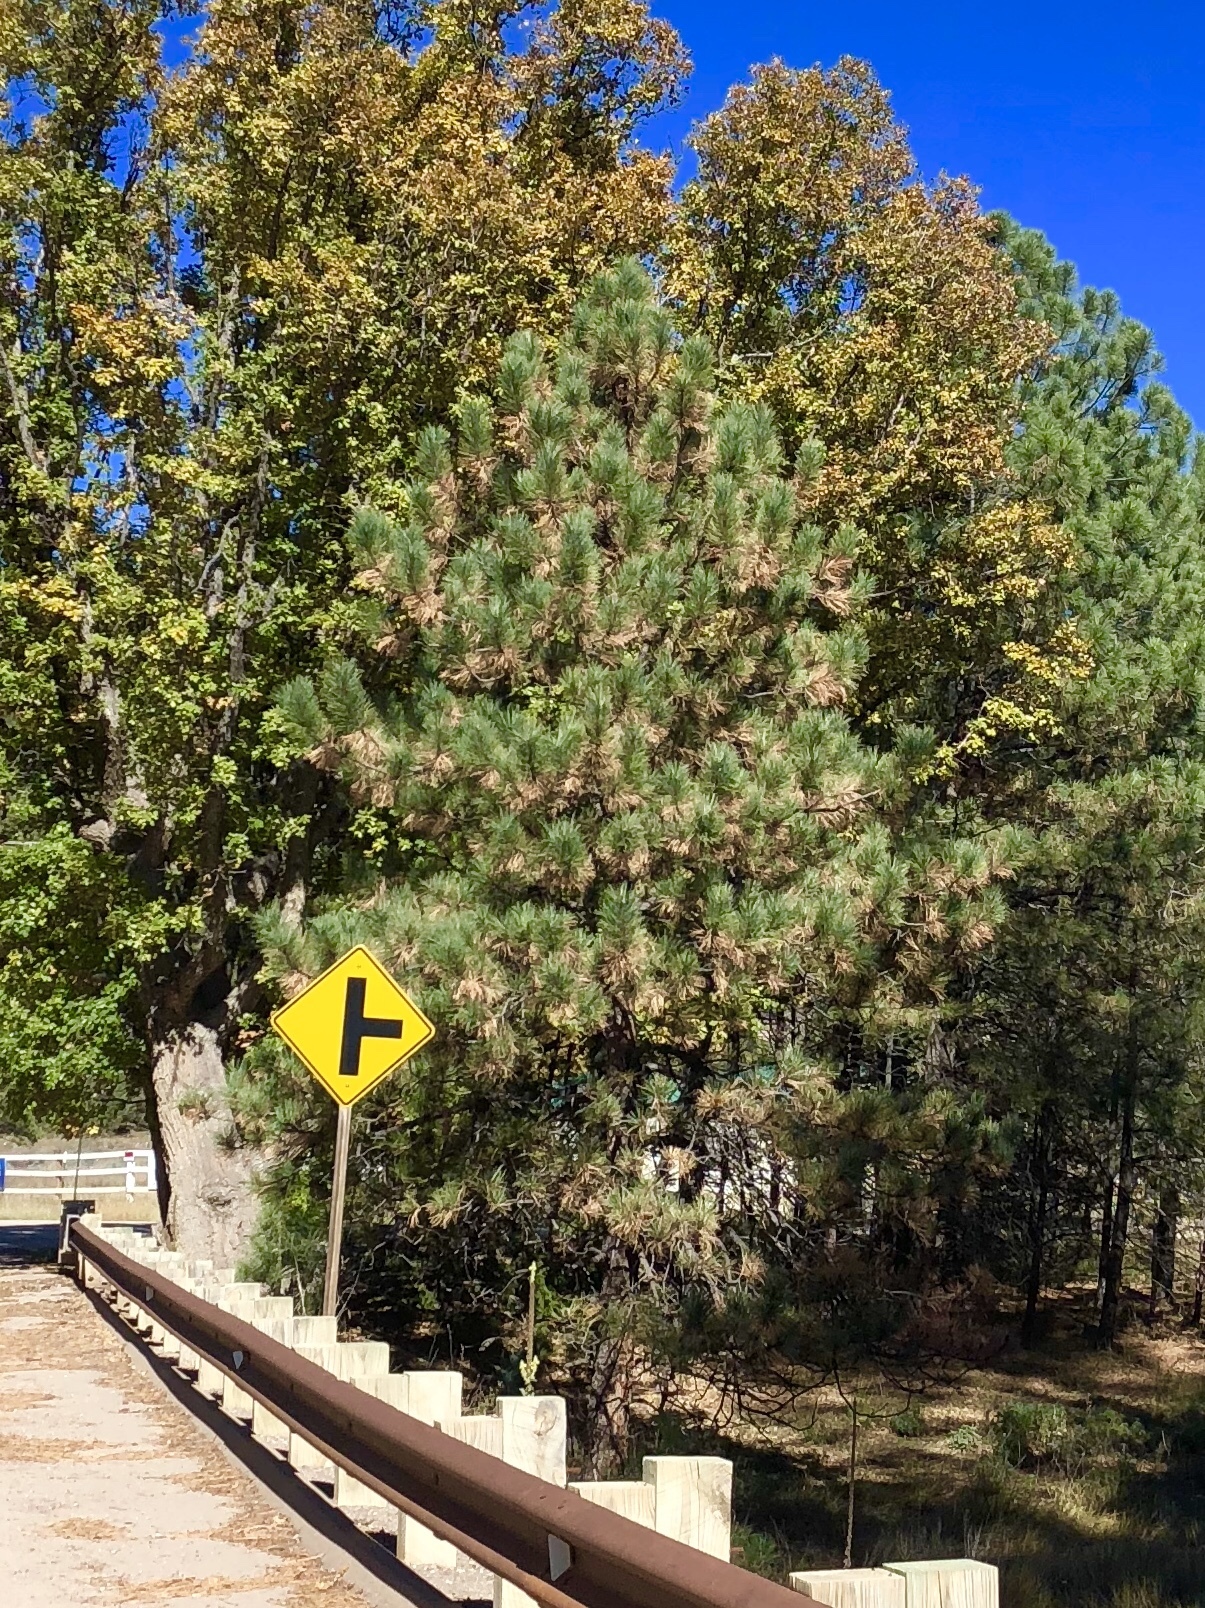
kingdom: Plantae
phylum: Tracheophyta
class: Pinopsida
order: Pinales
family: Pinaceae
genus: Pinus
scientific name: Pinus ponderosa
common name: Western yellow-pine
